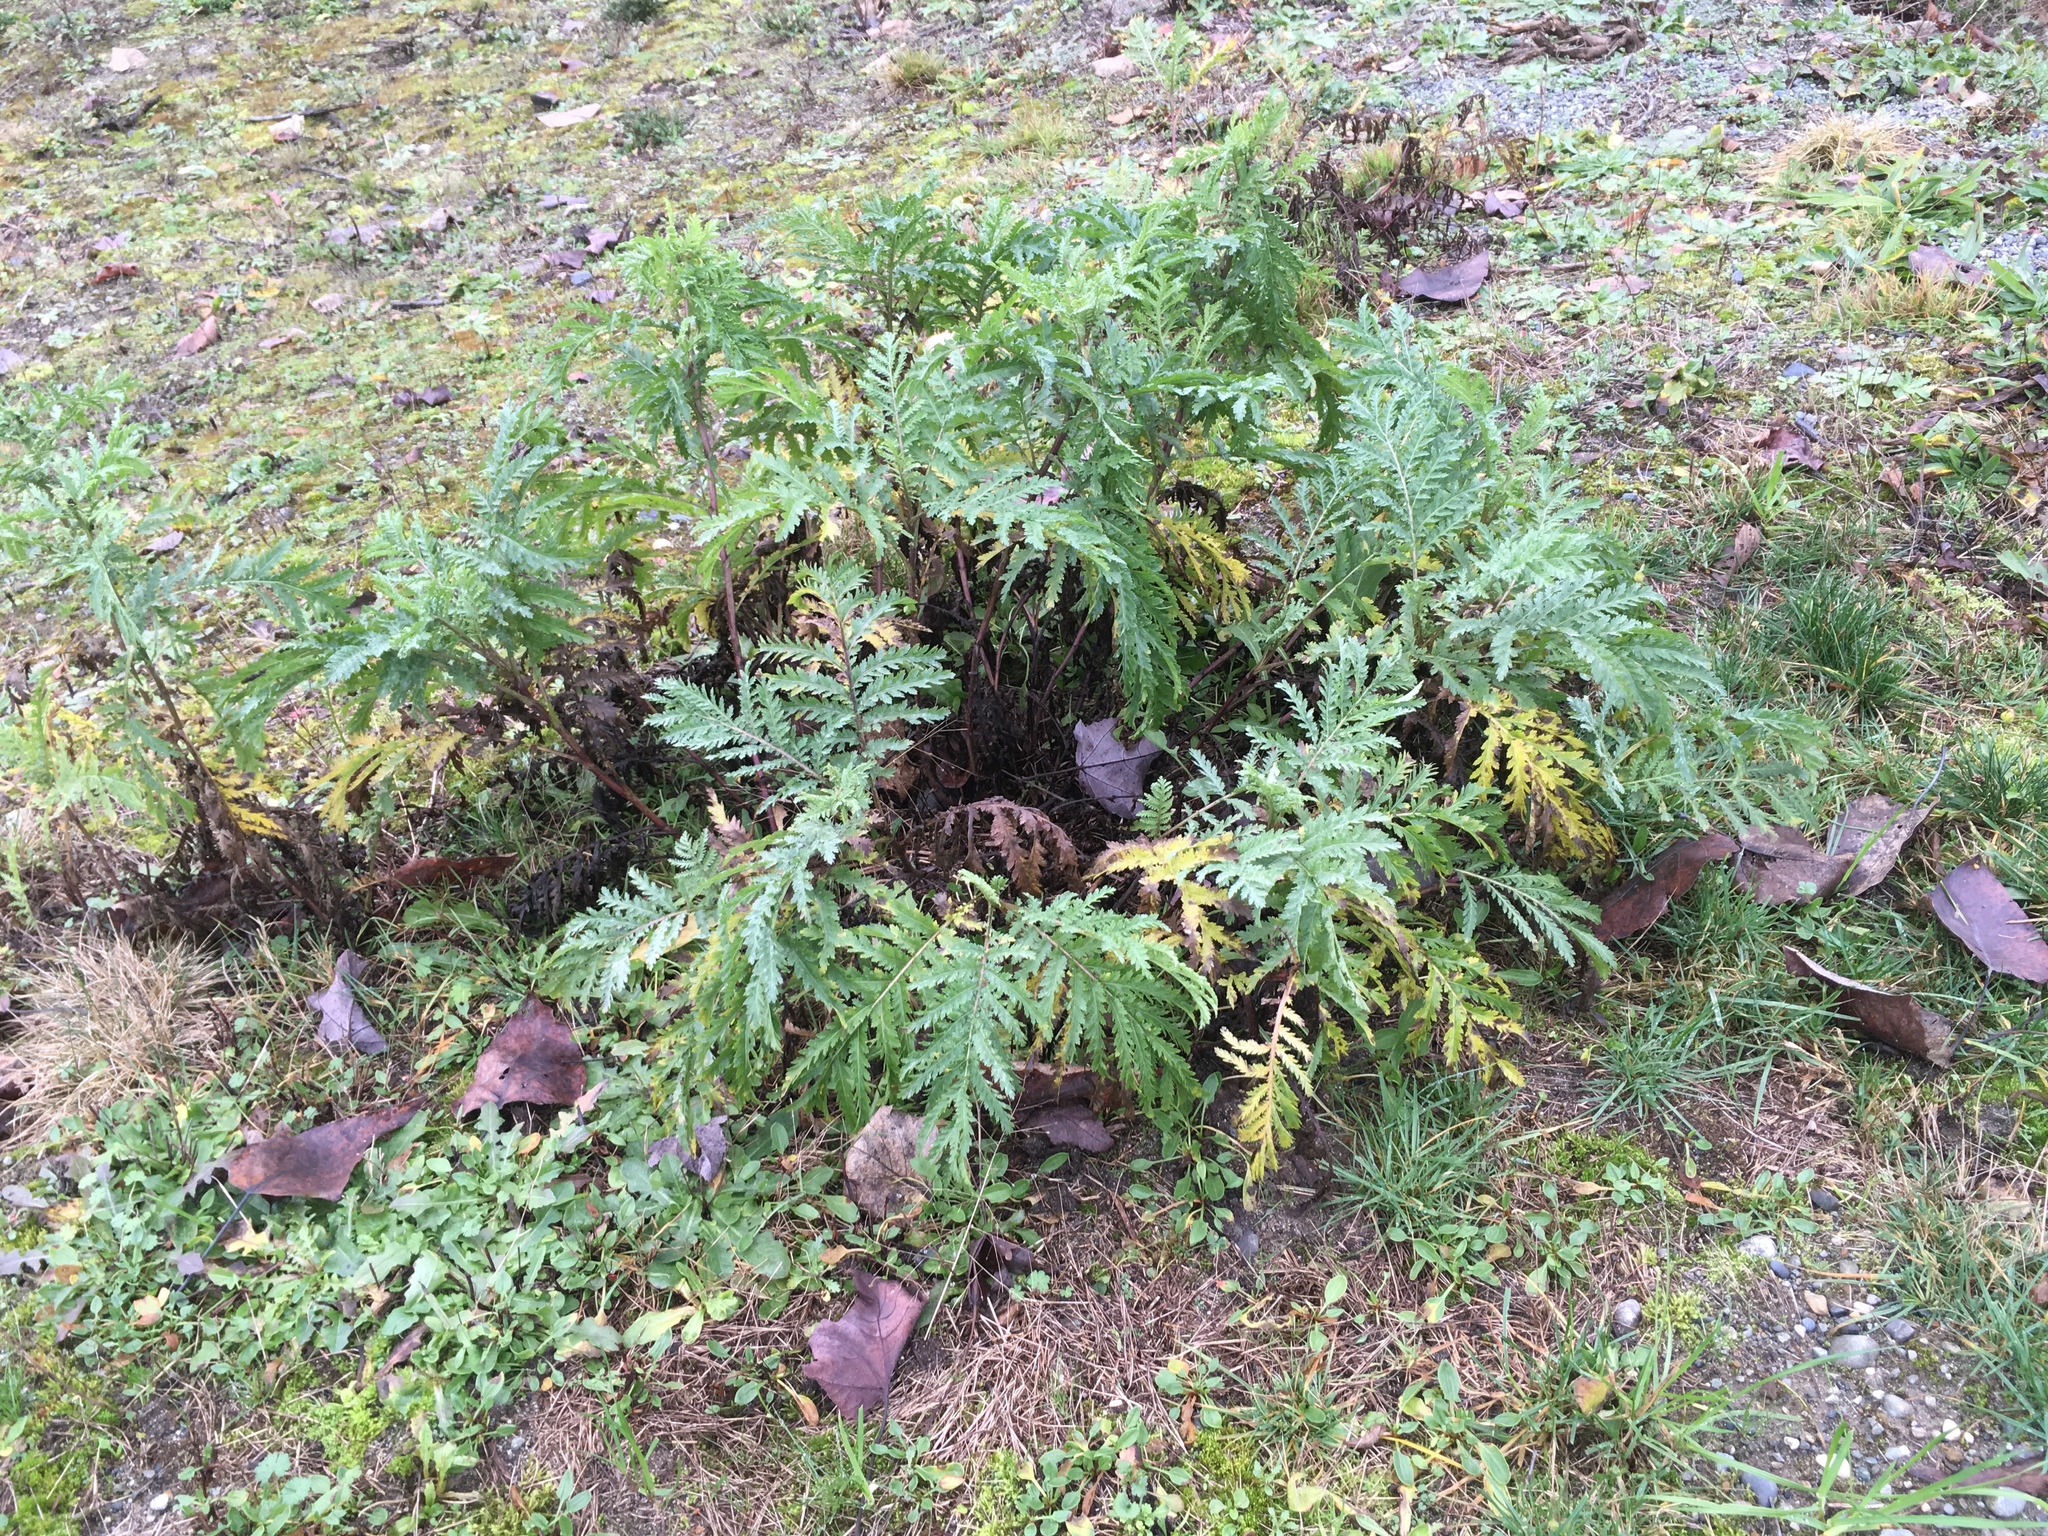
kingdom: Plantae
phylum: Tracheophyta
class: Magnoliopsida
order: Asterales
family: Asteraceae
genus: Tanacetum
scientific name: Tanacetum vulgare
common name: Common tansy
